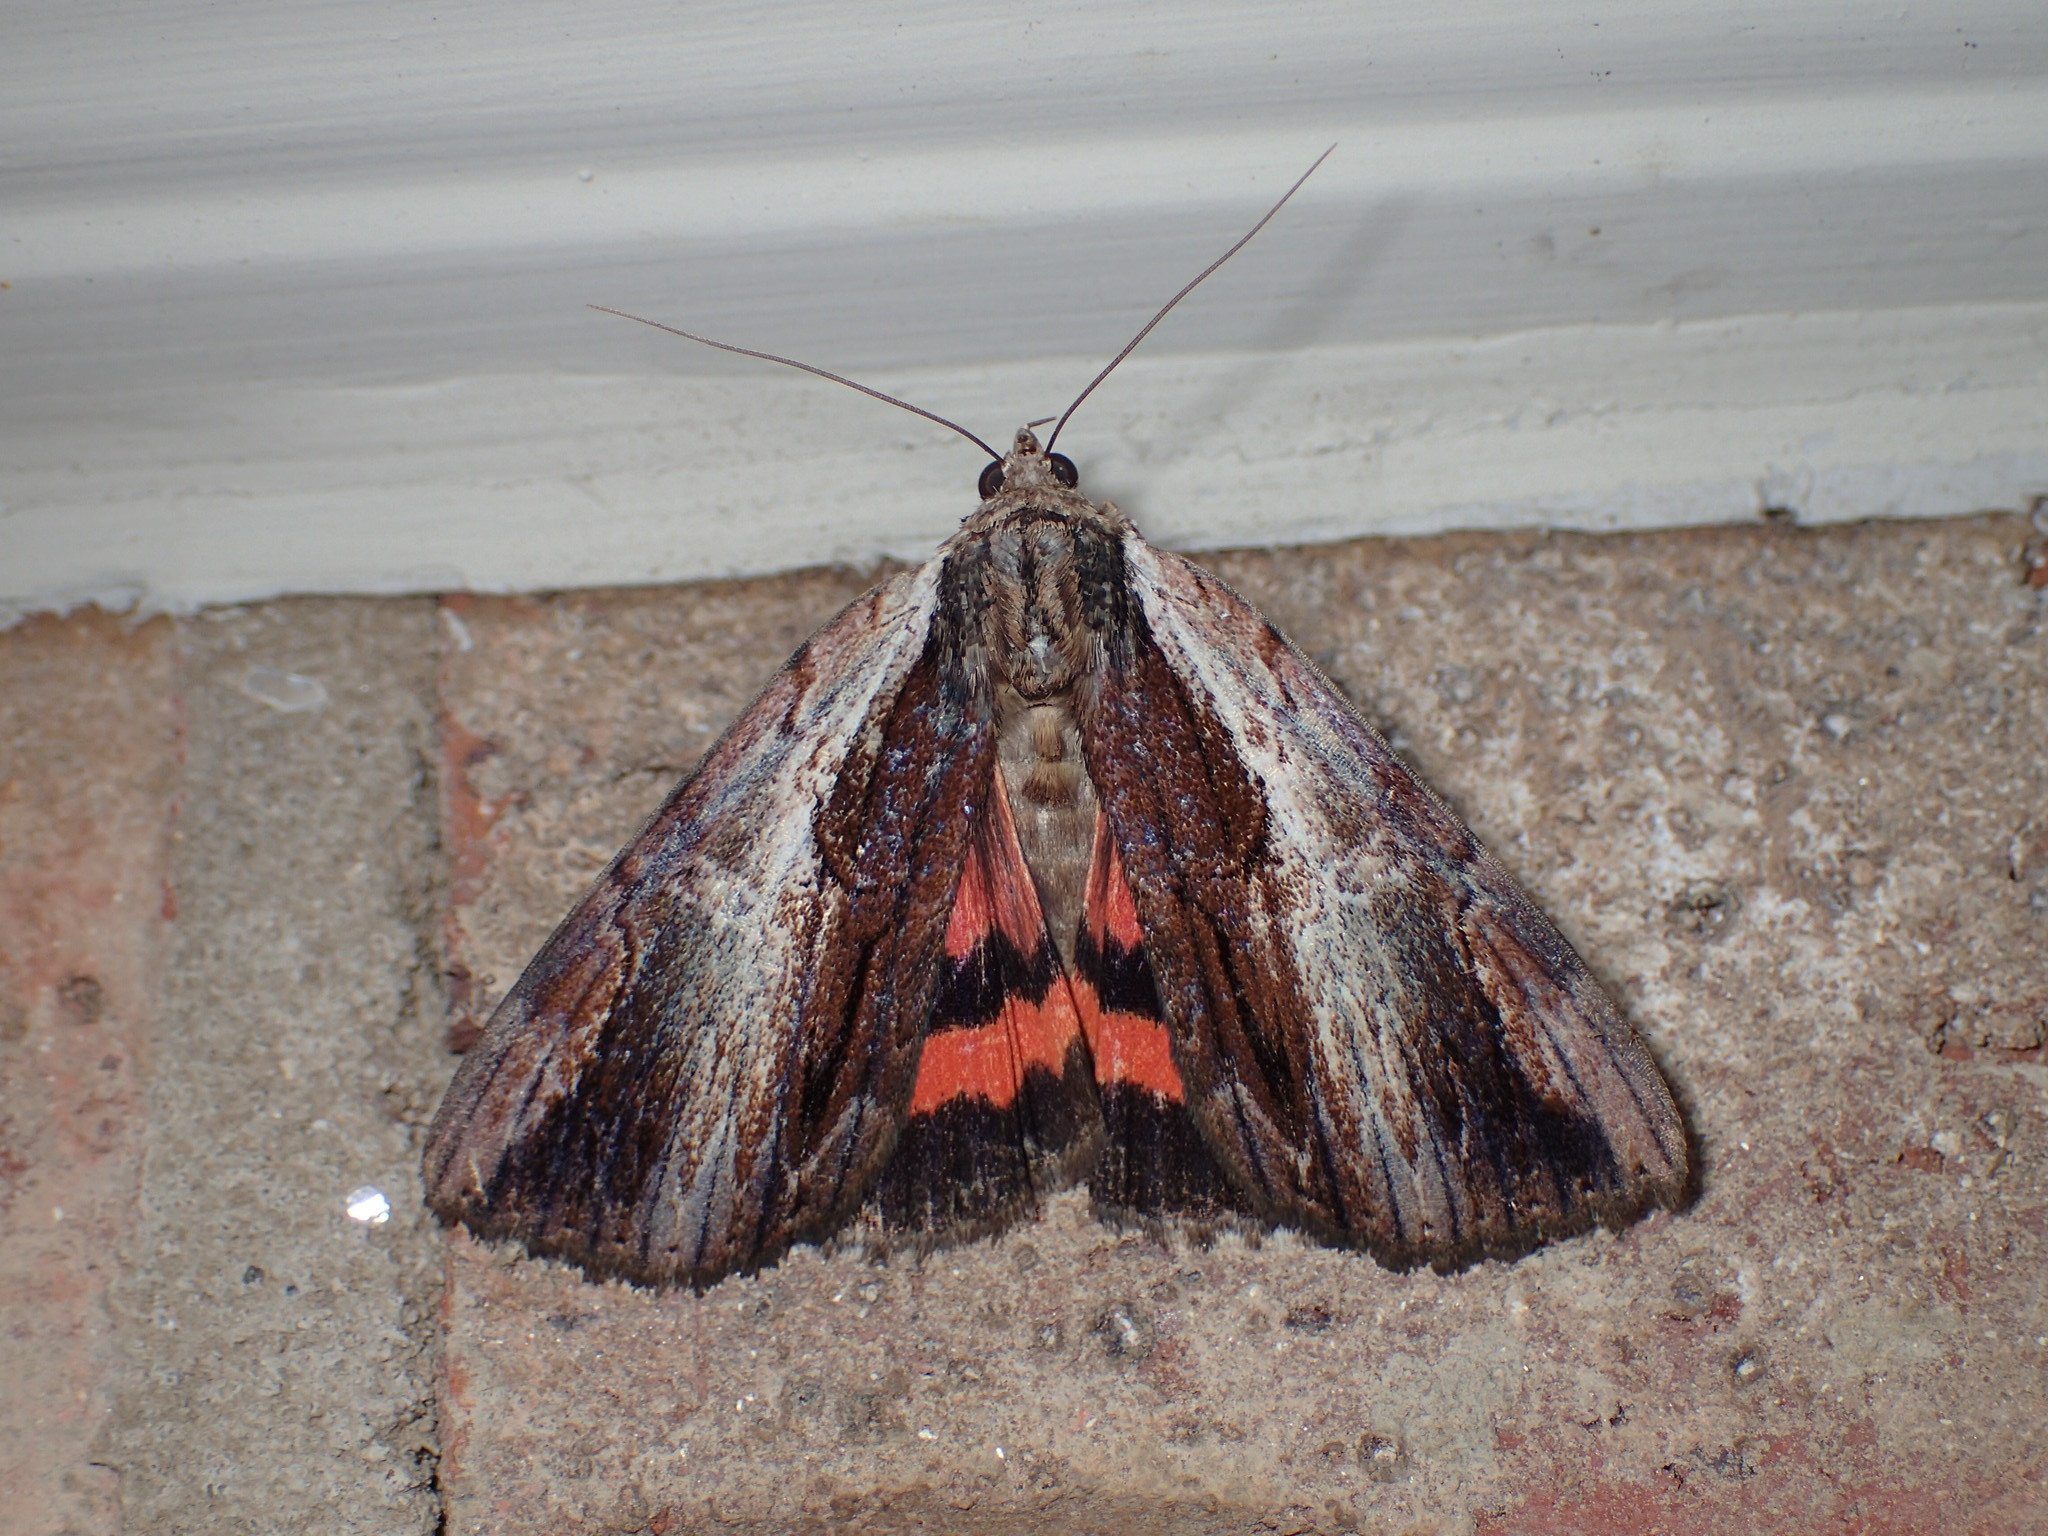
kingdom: Animalia
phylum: Arthropoda
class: Insecta
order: Lepidoptera
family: Erebidae
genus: Catocala
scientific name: Catocala ultronia
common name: Ultronia underwing
